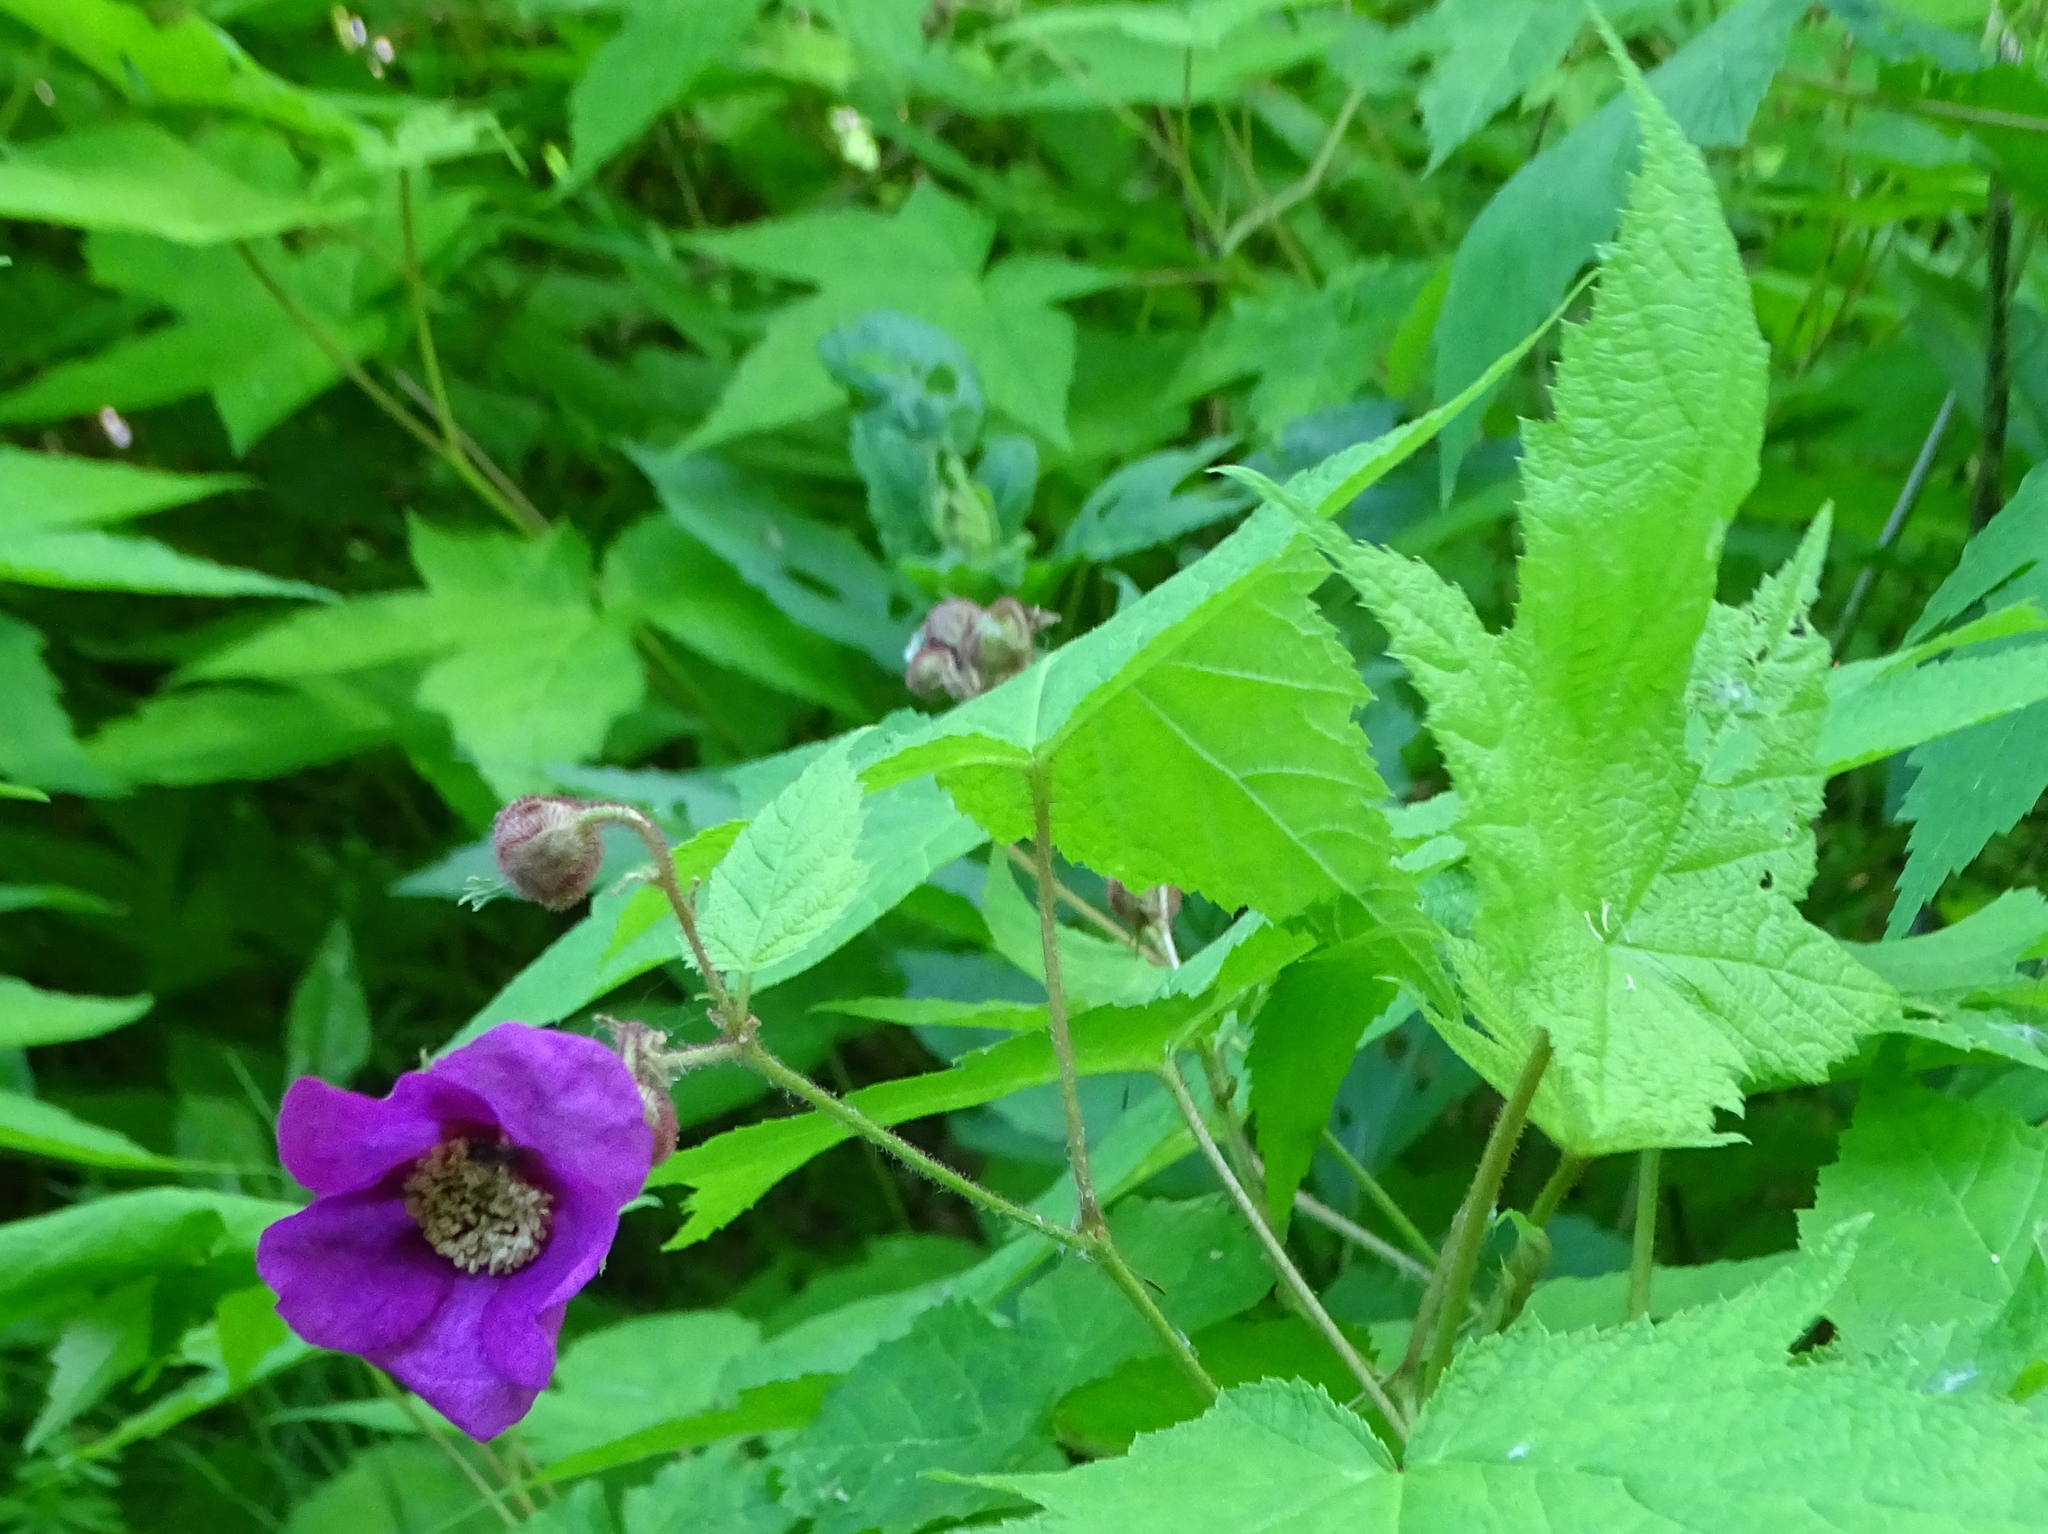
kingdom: Plantae
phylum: Tracheophyta
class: Magnoliopsida
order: Rosales
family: Rosaceae
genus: Rubus
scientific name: Rubus odoratus
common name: Purple-flowered raspberry
